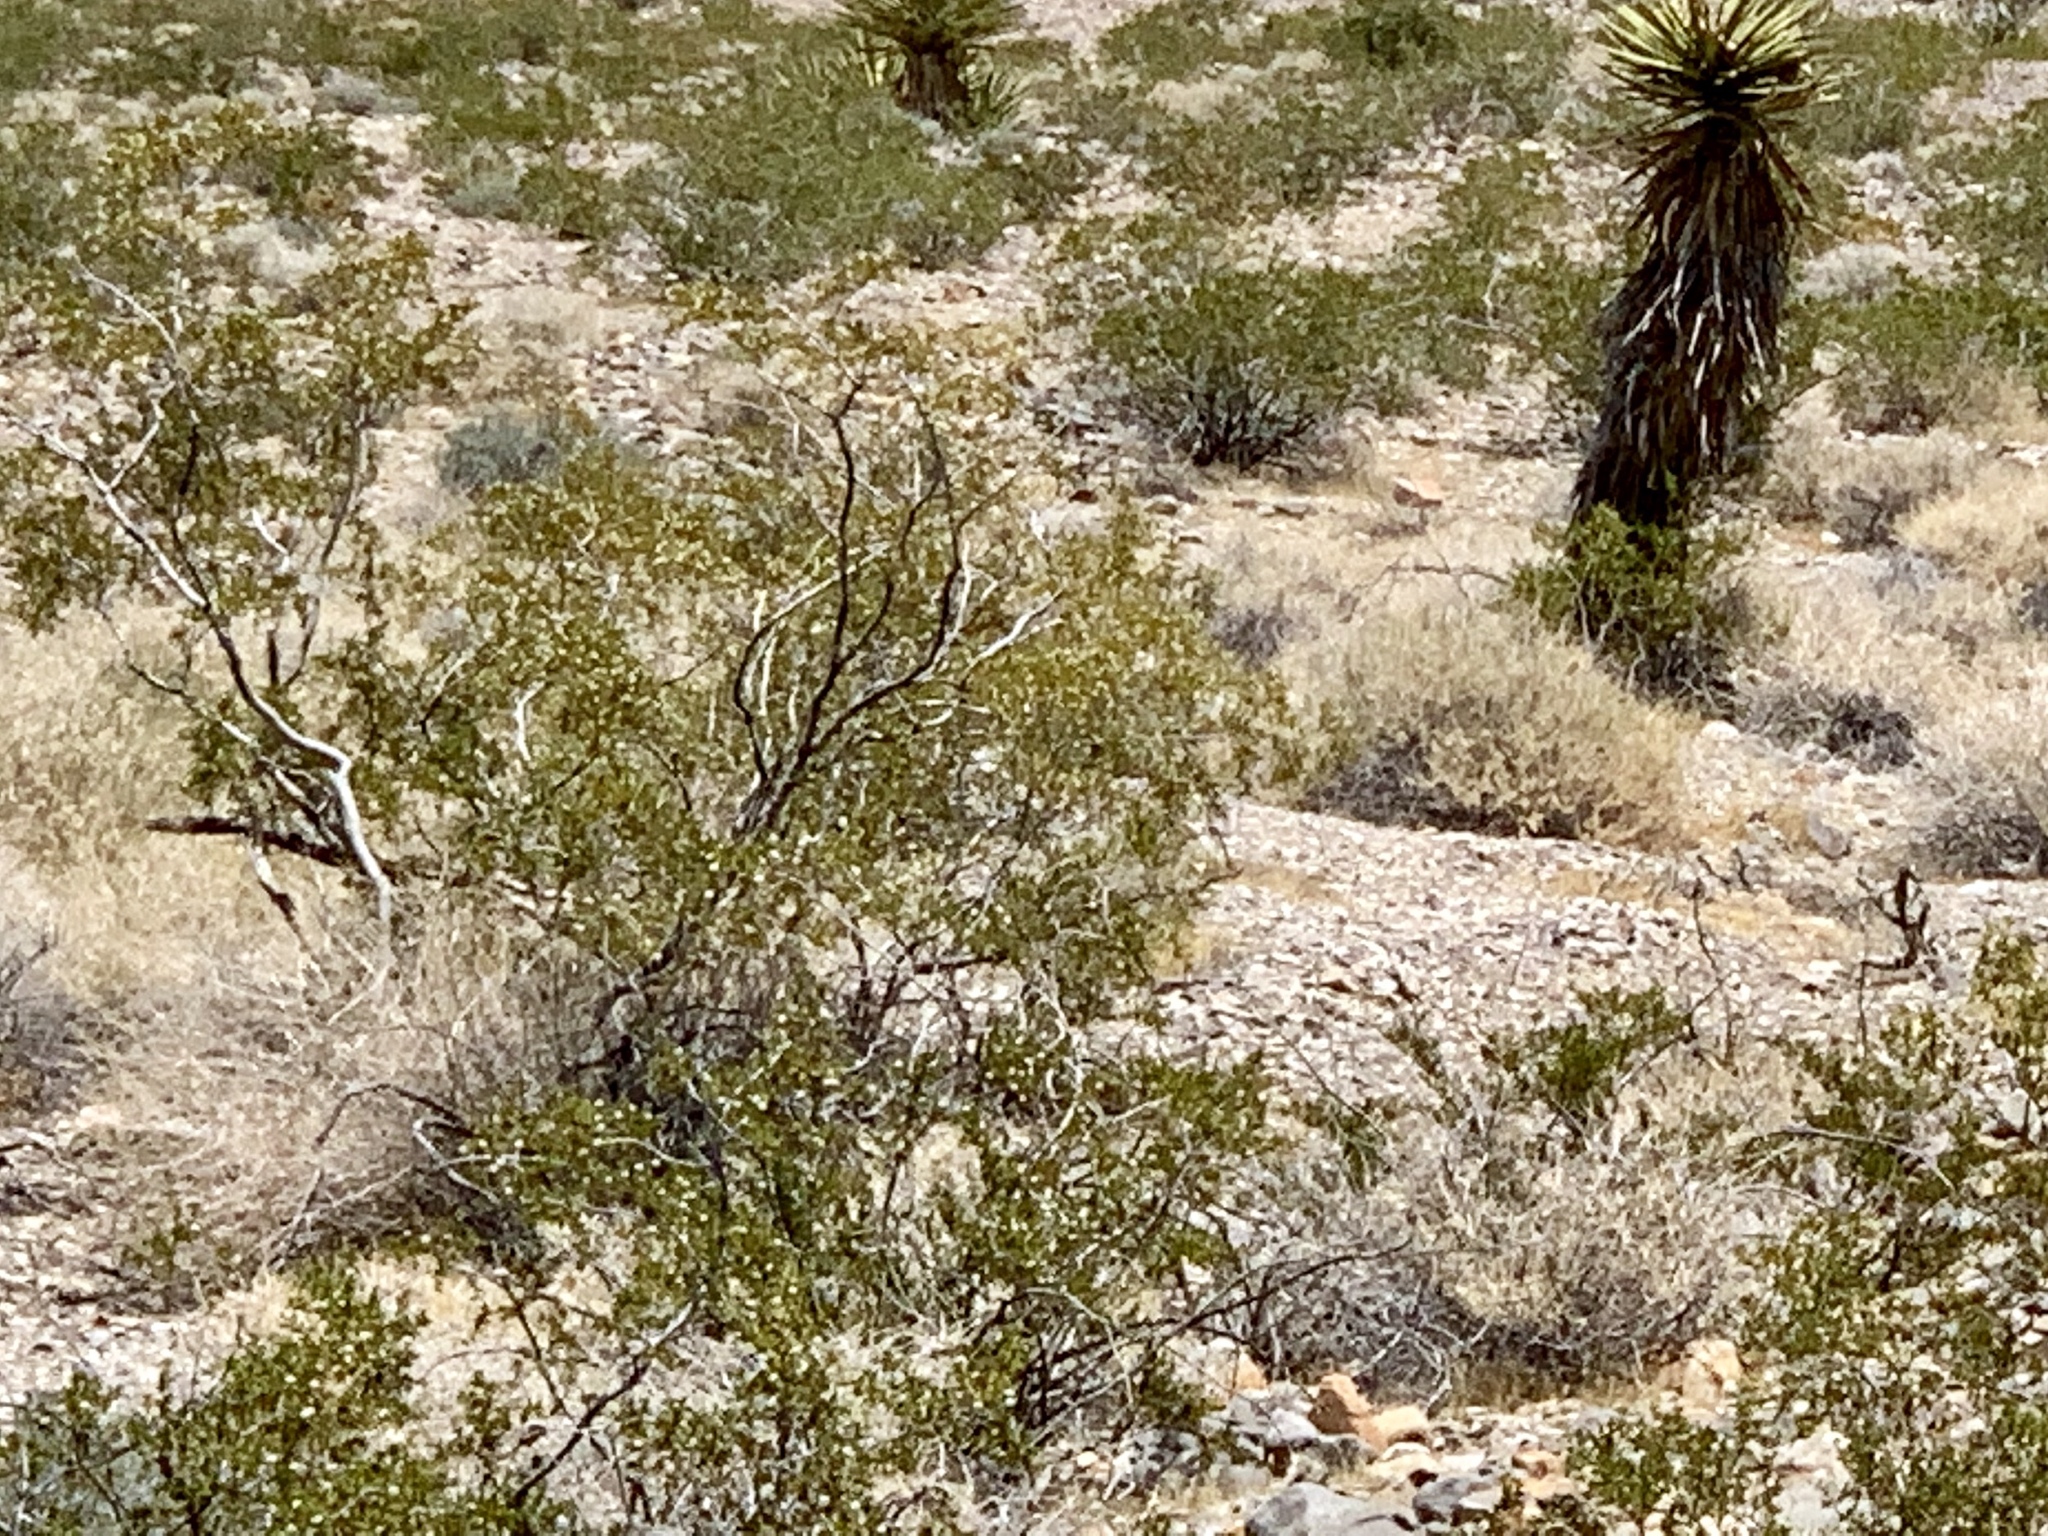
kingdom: Plantae
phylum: Tracheophyta
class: Magnoliopsida
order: Zygophyllales
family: Zygophyllaceae
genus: Larrea
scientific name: Larrea tridentata
